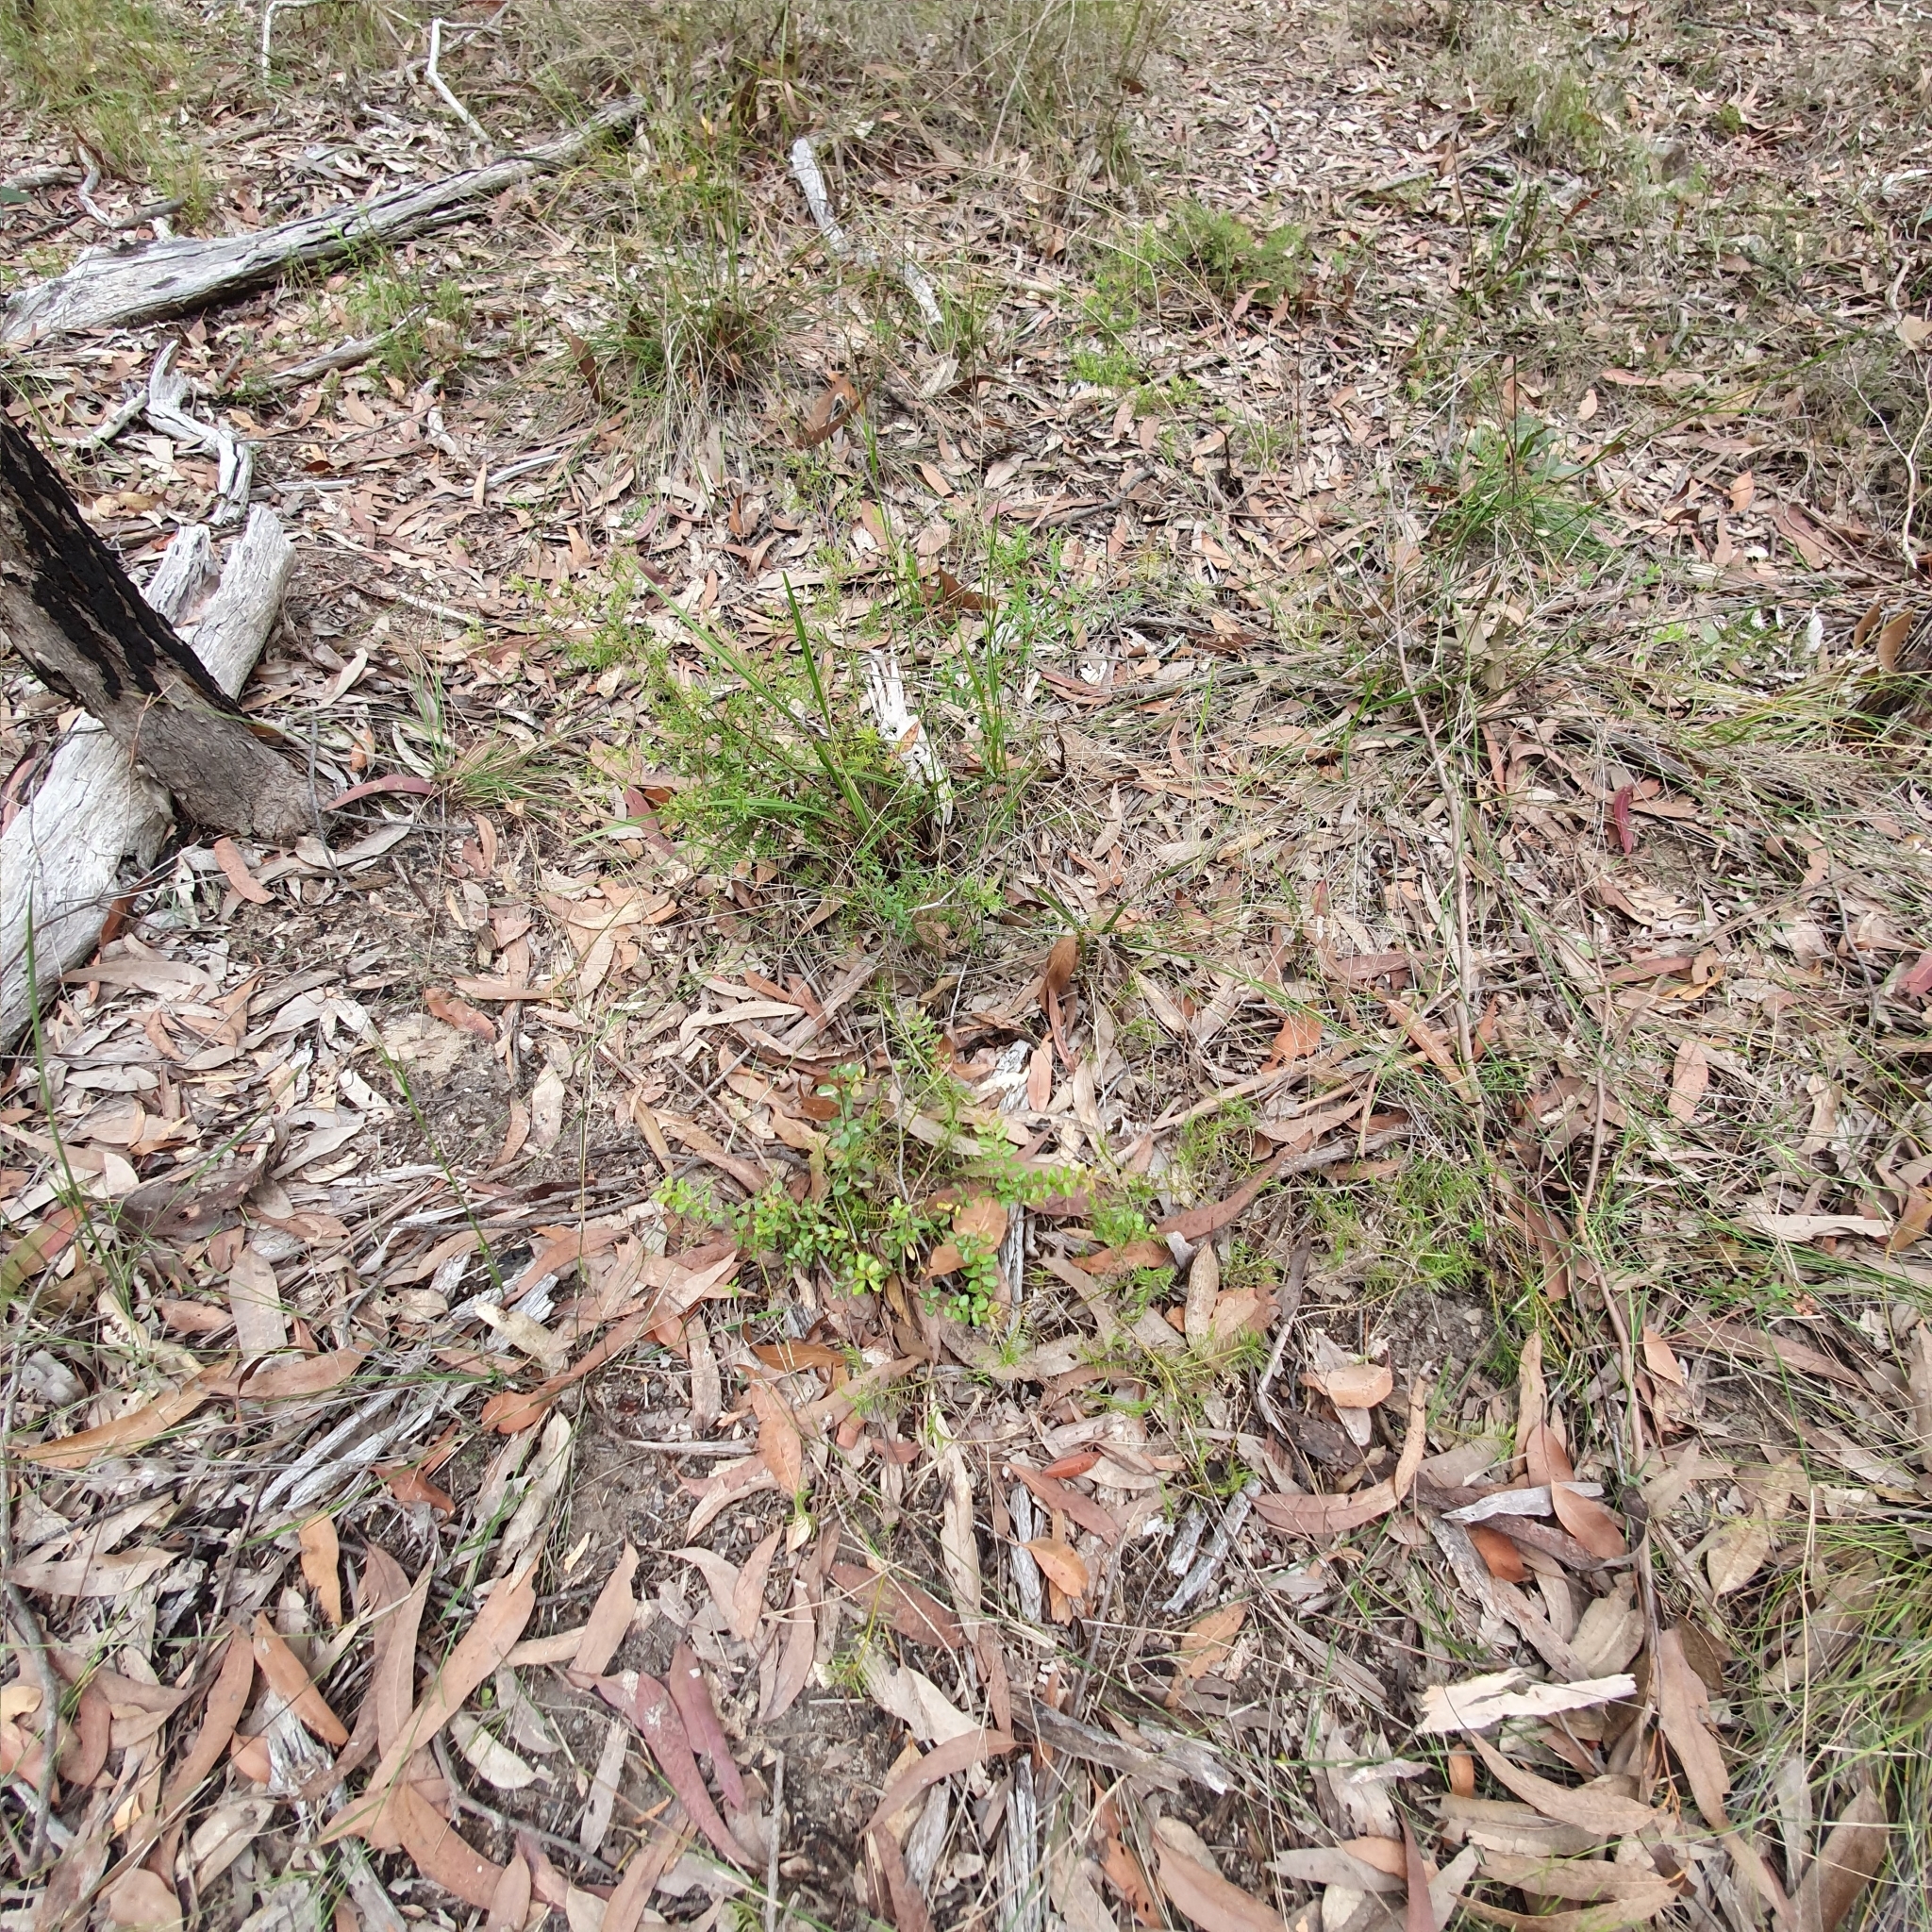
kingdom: Plantae
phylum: Tracheophyta
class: Magnoliopsida
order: Proteales
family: Proteaceae
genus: Grevillea
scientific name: Grevillea mucronulata
